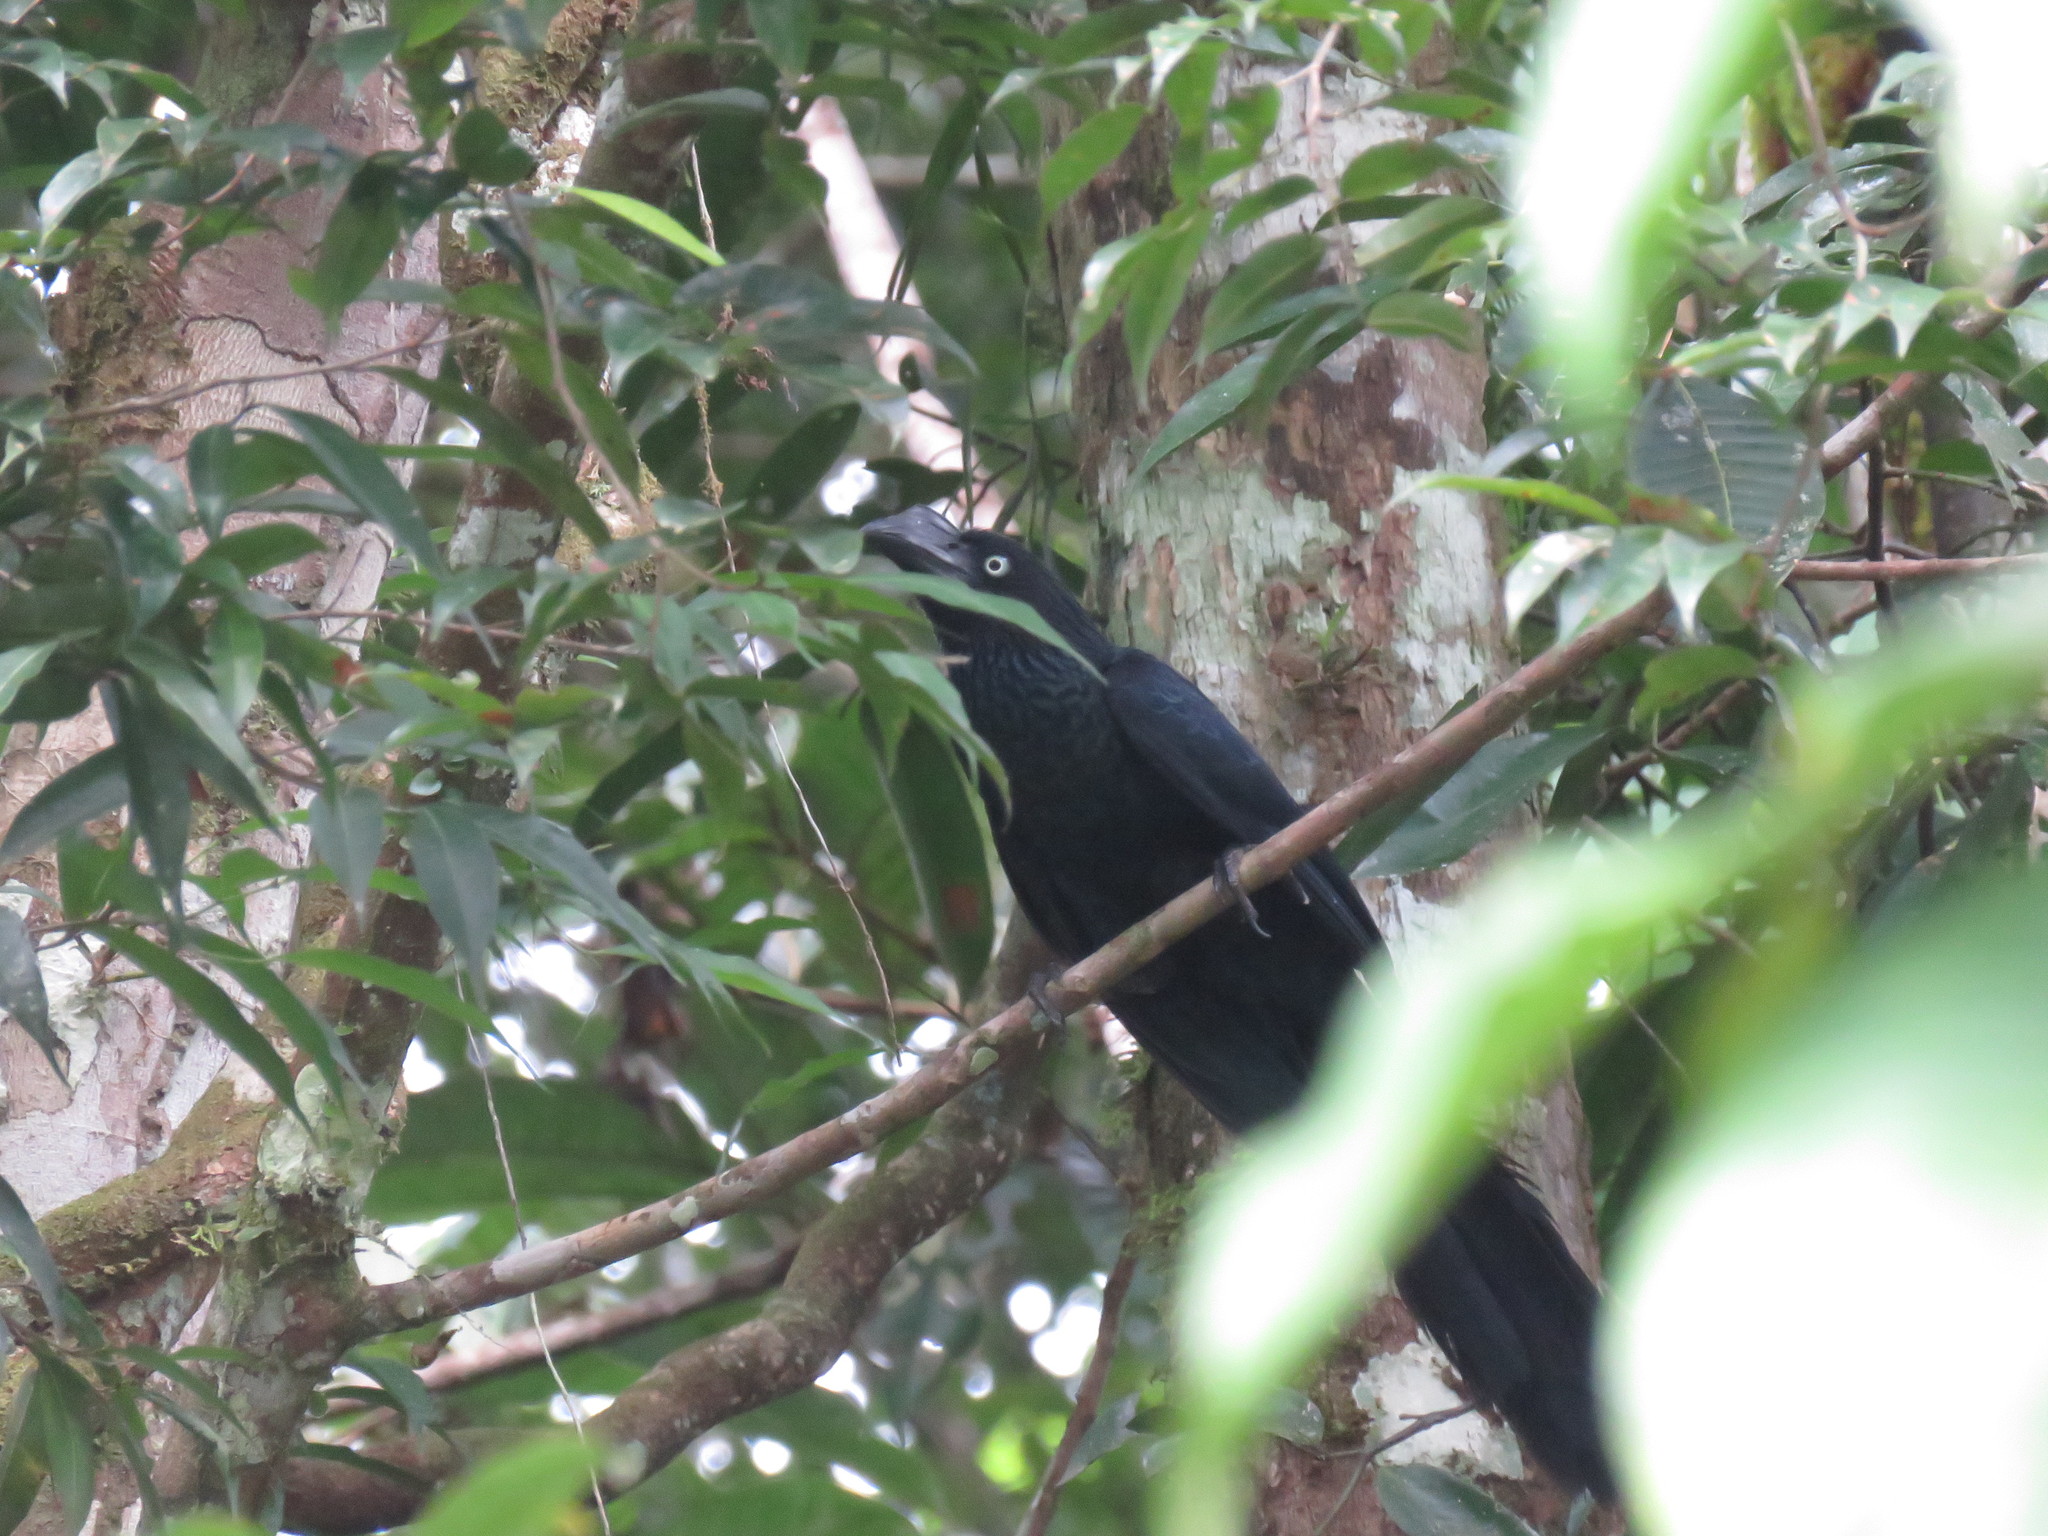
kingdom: Animalia
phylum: Chordata
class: Aves
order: Cuculiformes
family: Cuculidae
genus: Crotophaga
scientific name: Crotophaga major
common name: Greater ani
